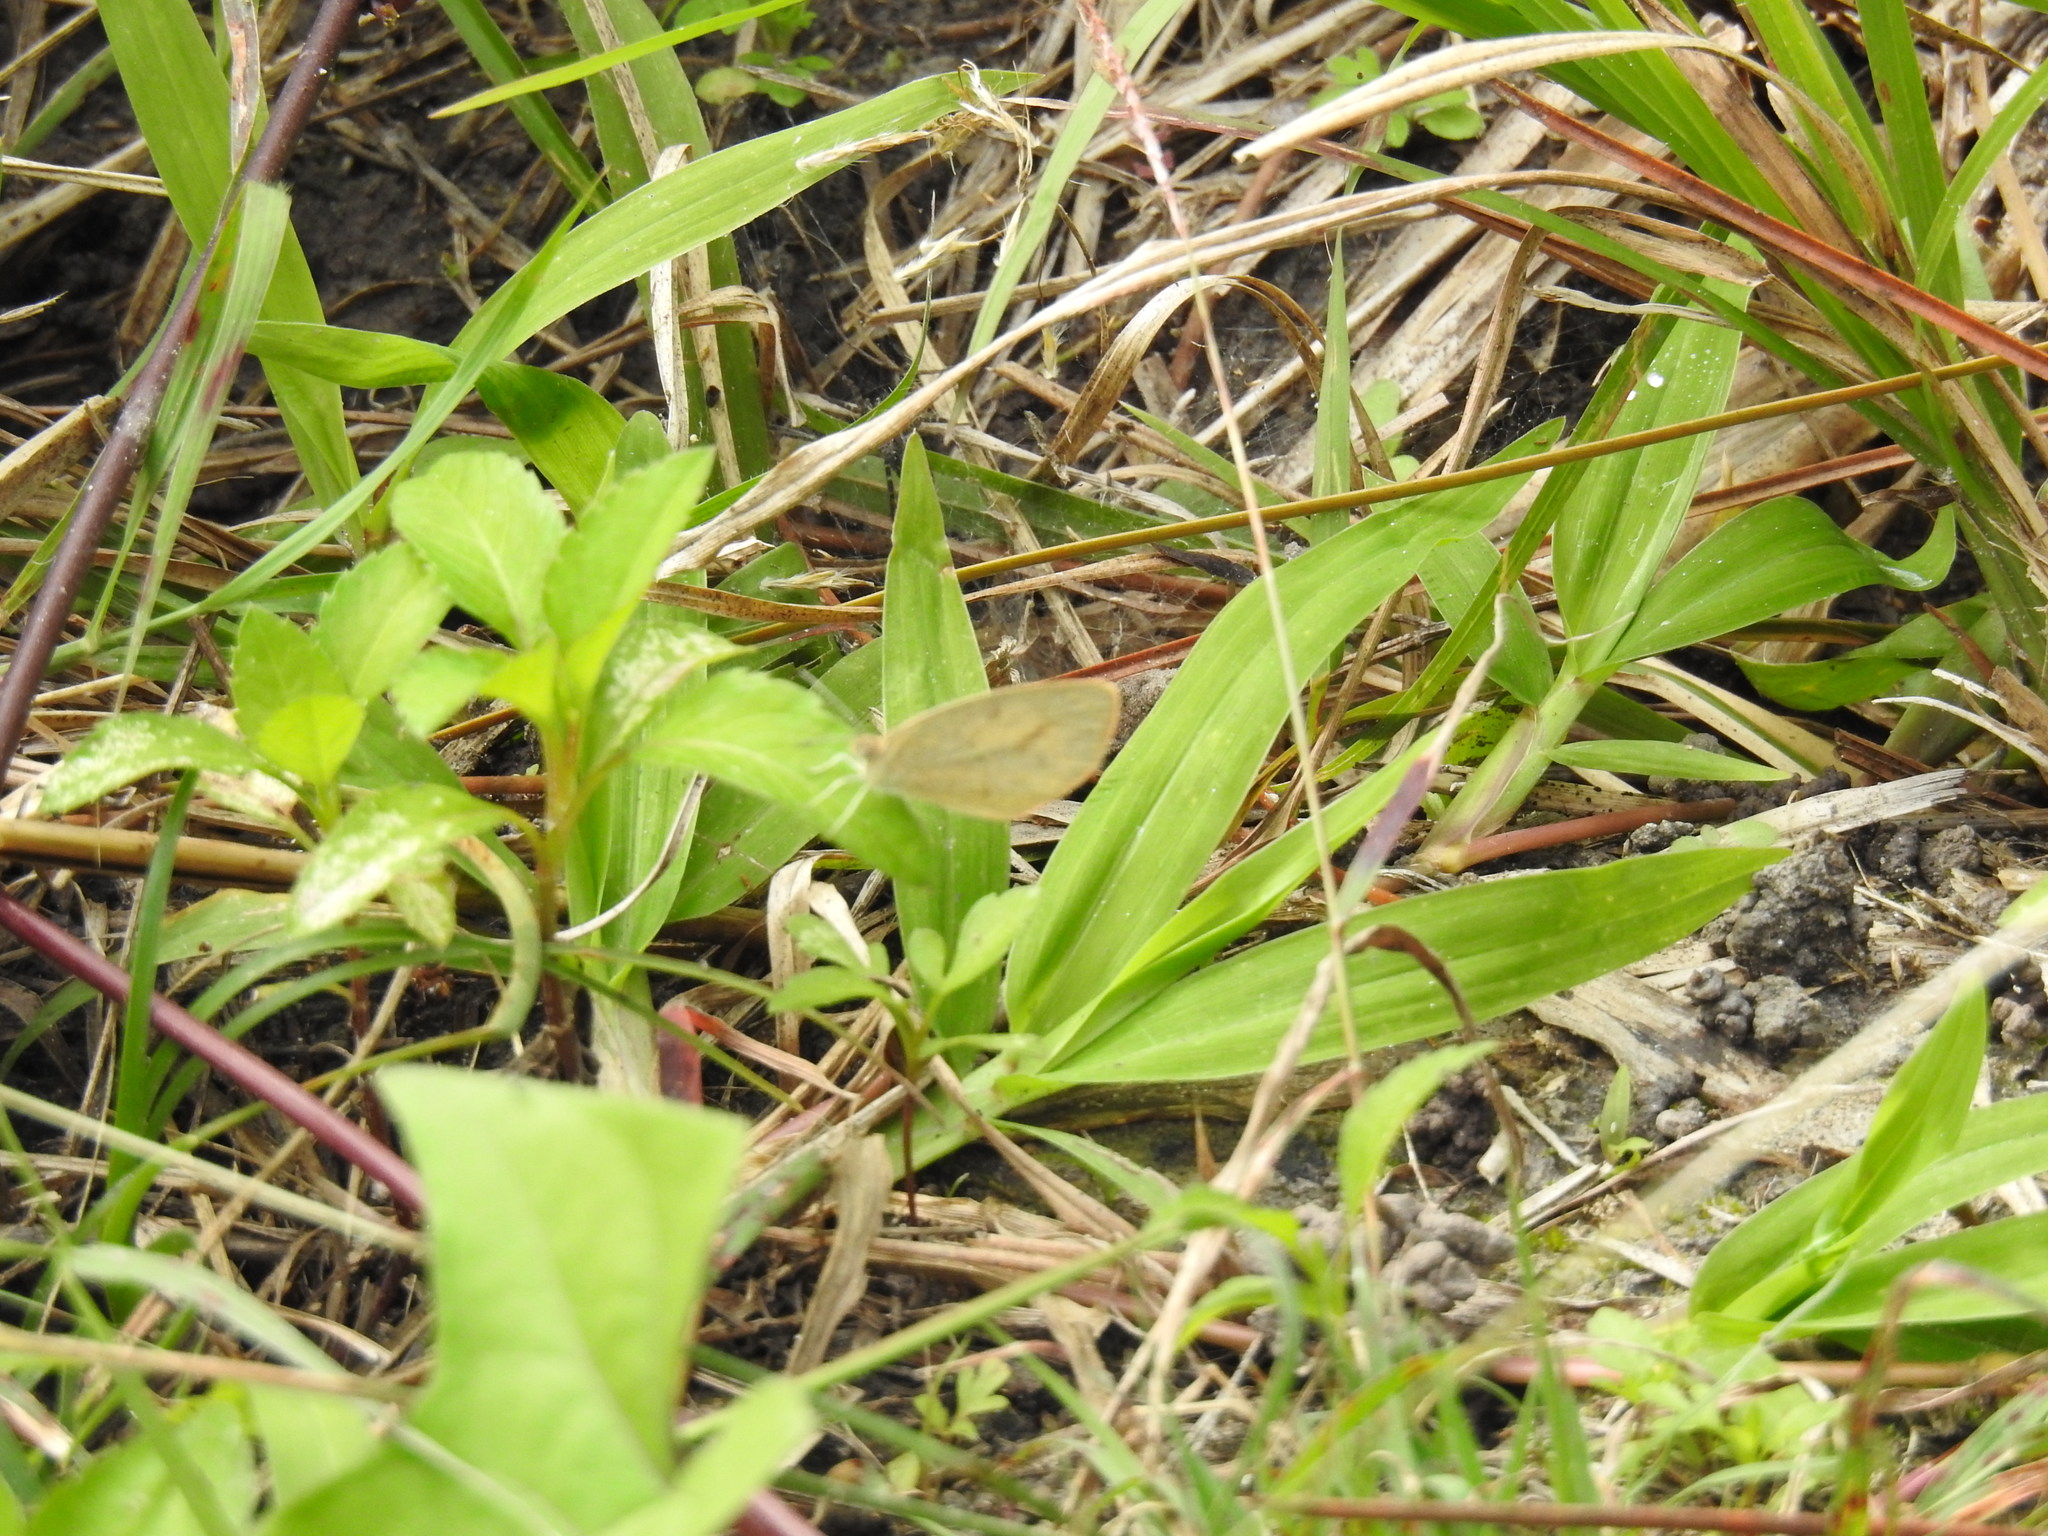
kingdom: Animalia
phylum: Arthropoda
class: Insecta
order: Lepidoptera
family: Pieridae
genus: Eurema
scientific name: Eurema daira
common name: Barred sulphur
